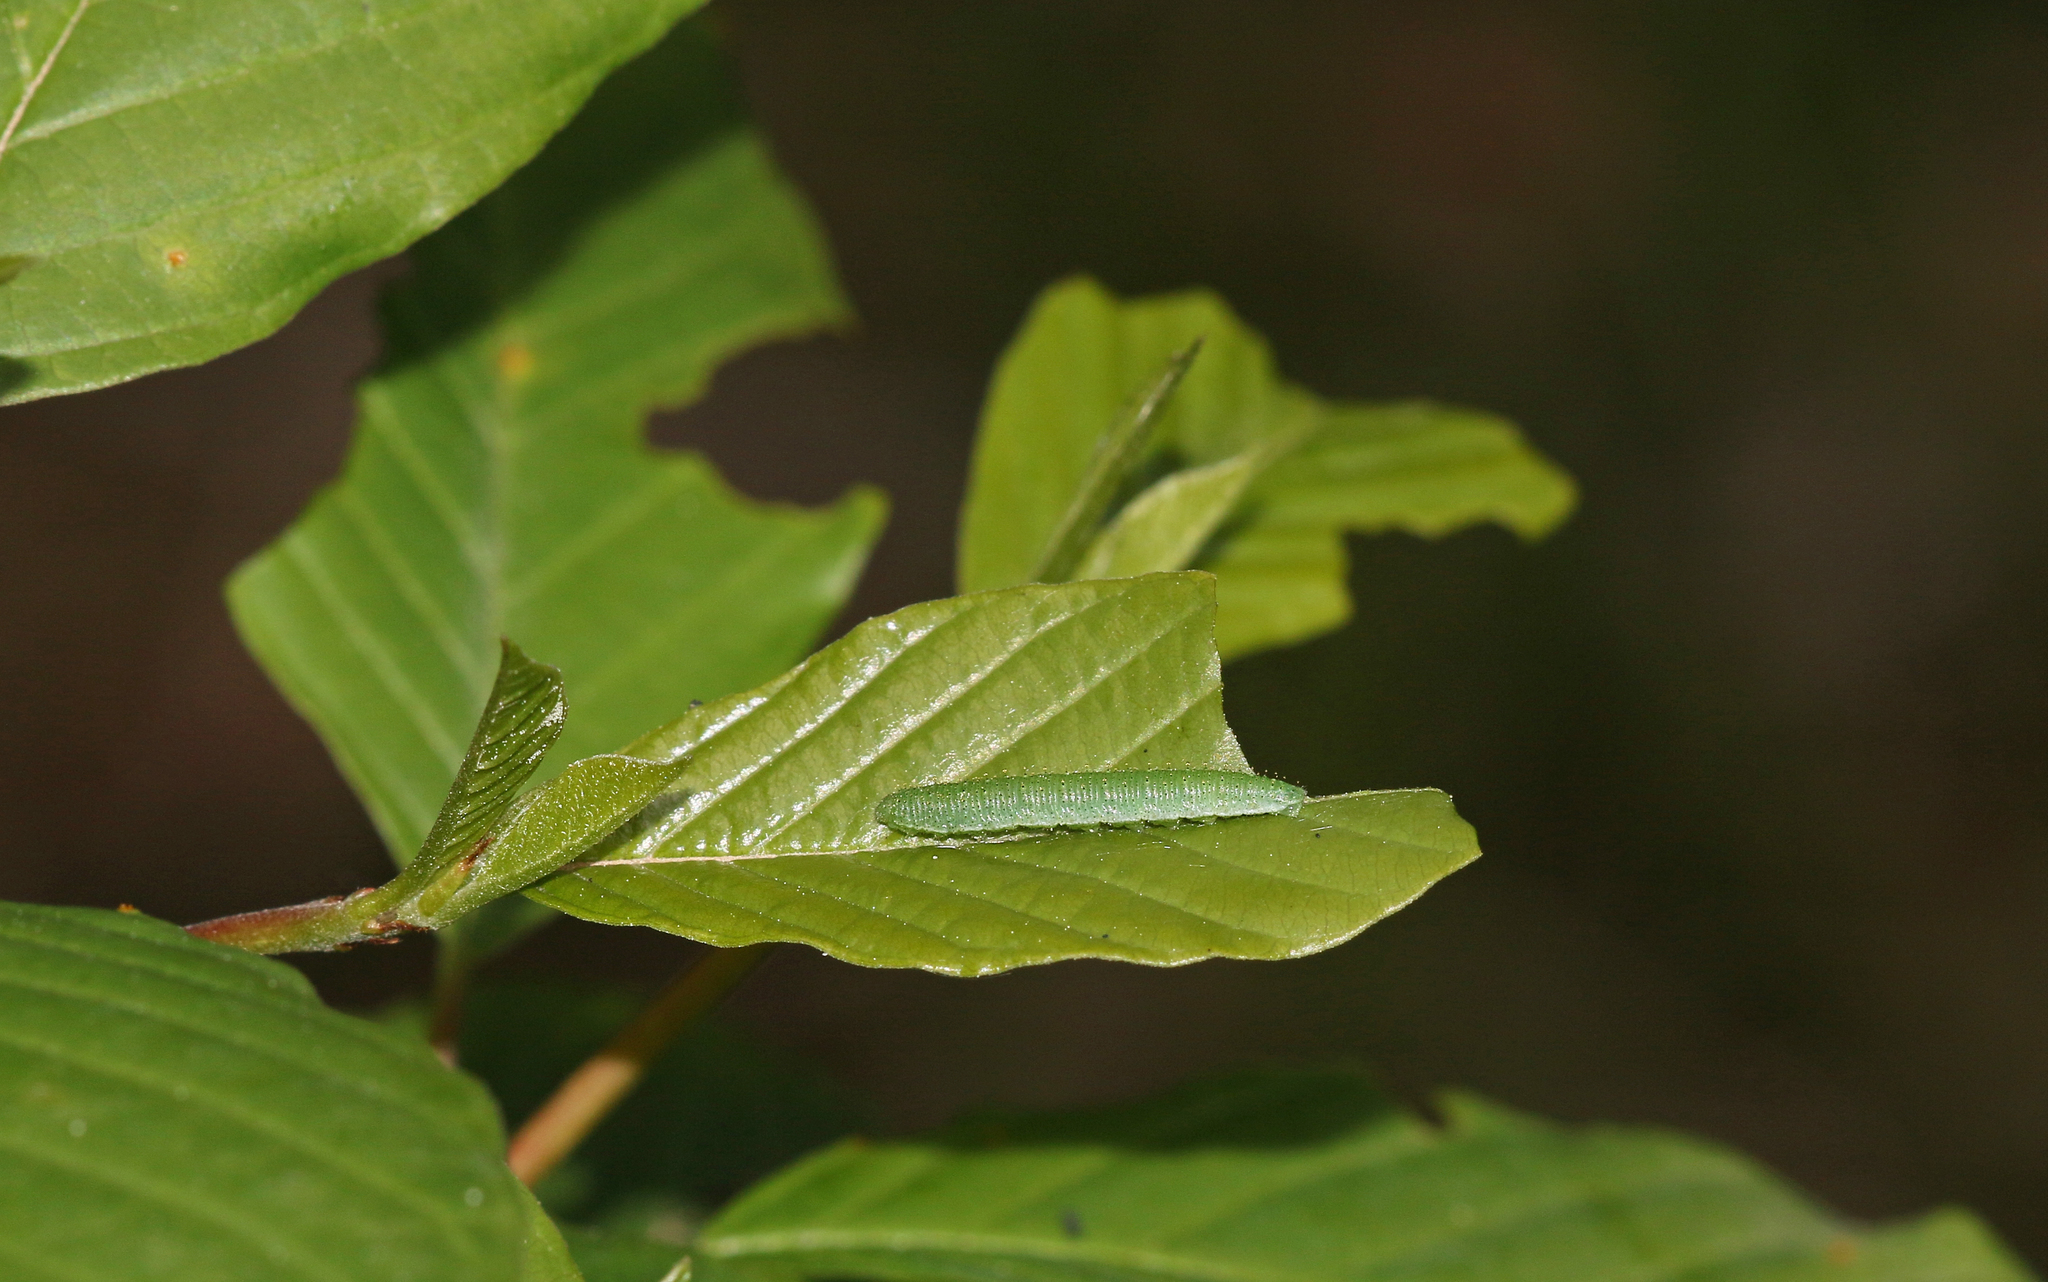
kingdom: Animalia
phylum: Arthropoda
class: Insecta
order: Lepidoptera
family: Pieridae
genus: Gonepteryx
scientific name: Gonepteryx rhamni
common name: Brimstone
